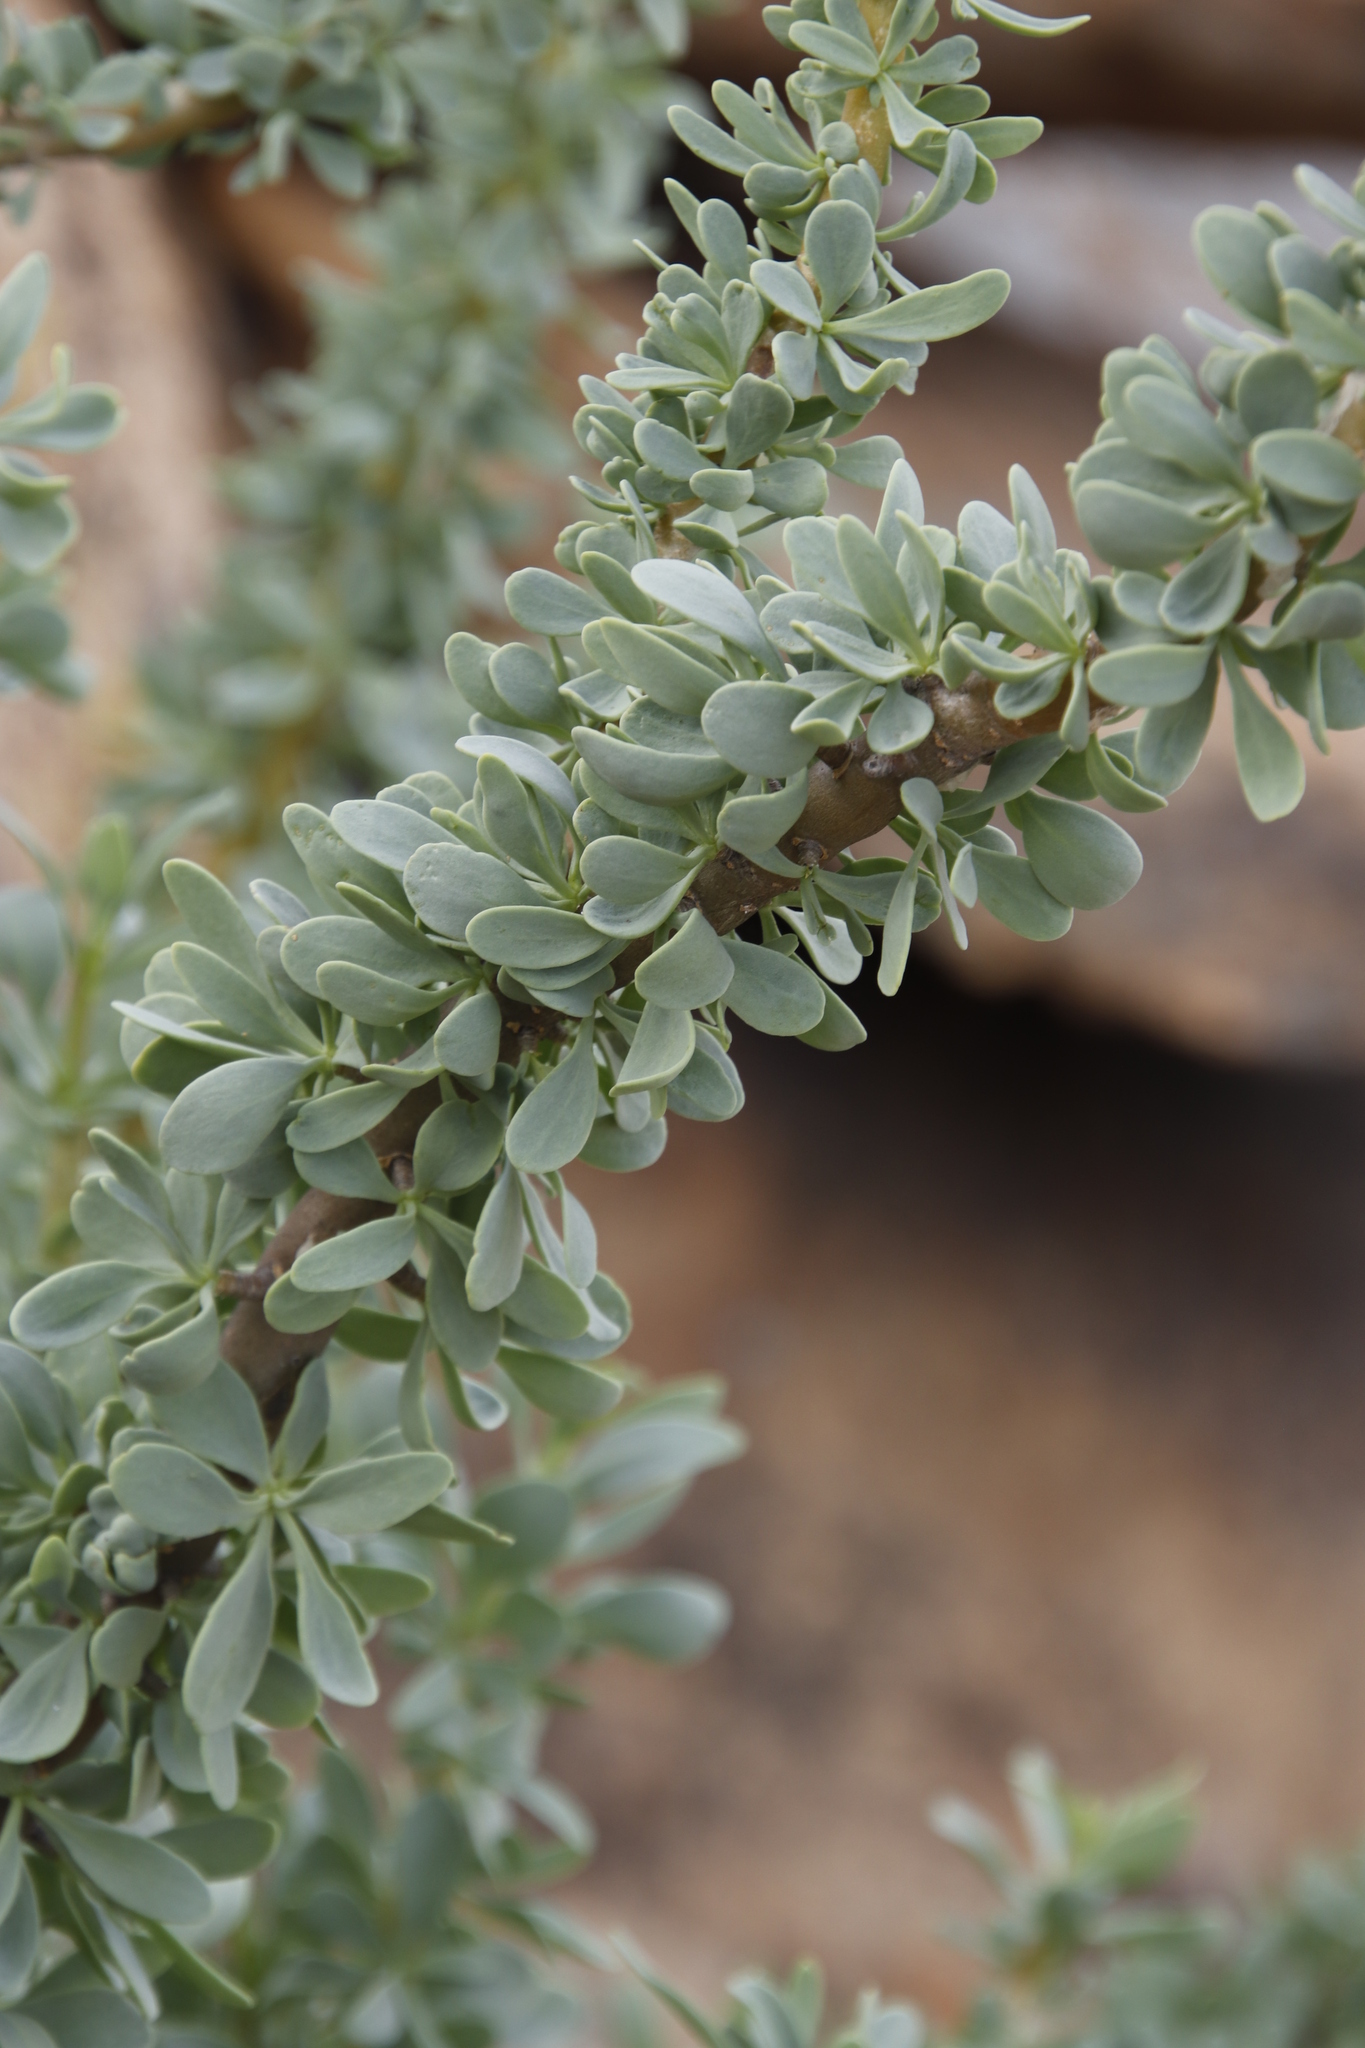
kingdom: Plantae
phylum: Tracheophyta
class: Magnoliopsida
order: Asterales
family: Asteraceae
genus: Othonna
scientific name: Othonna cerarioides
